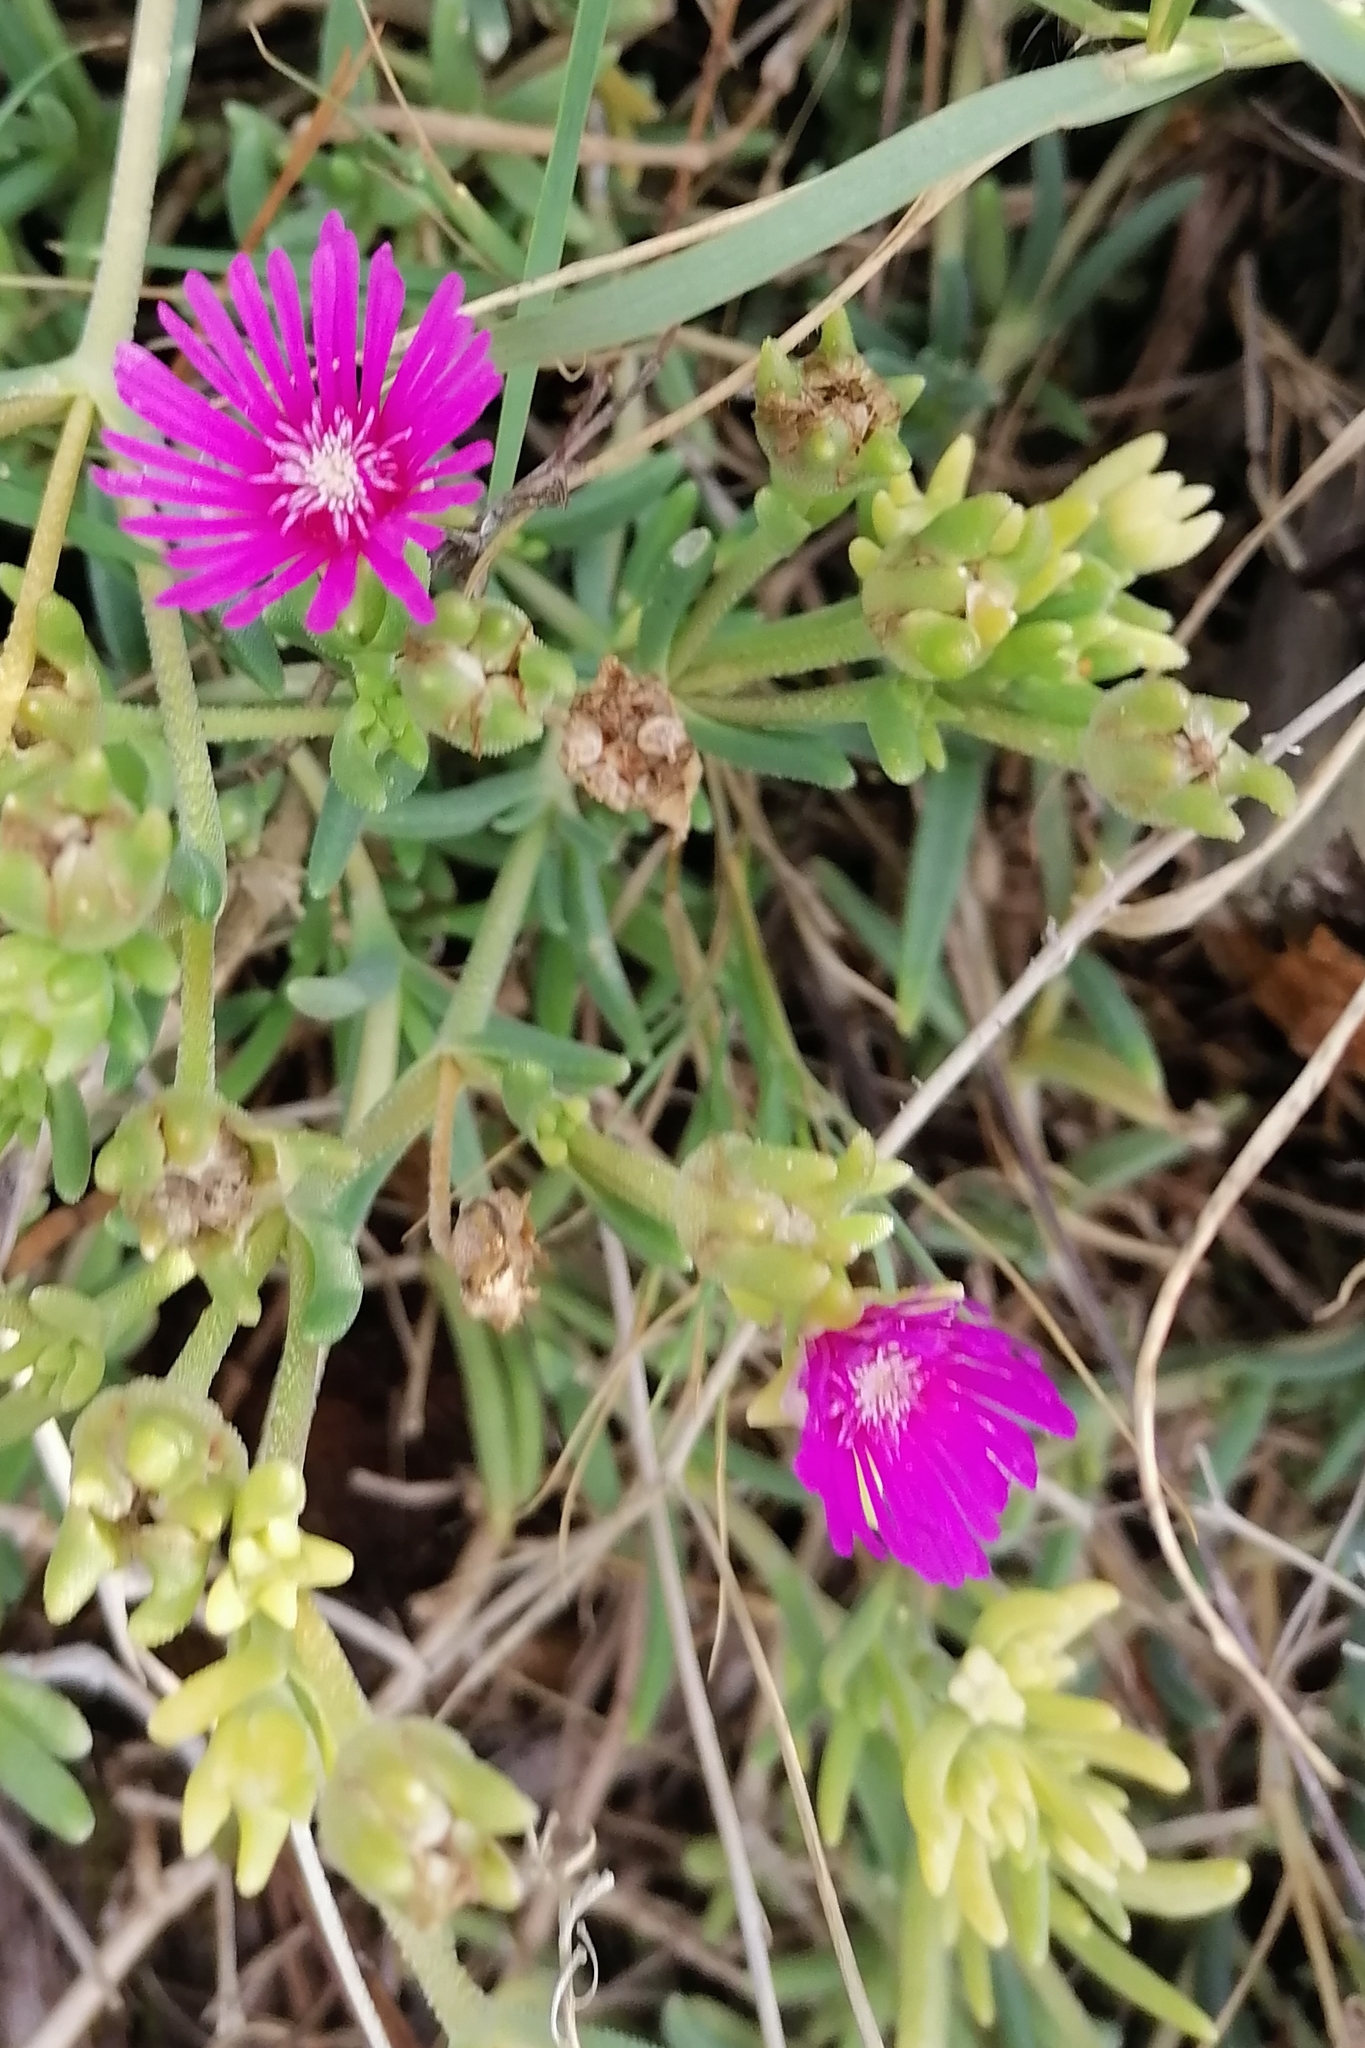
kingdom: Plantae
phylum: Tracheophyta
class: Magnoliopsida
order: Caryophyllales
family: Aizoaceae
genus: Delosperma
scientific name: Delosperma cooperi
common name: Hardy iceplant
